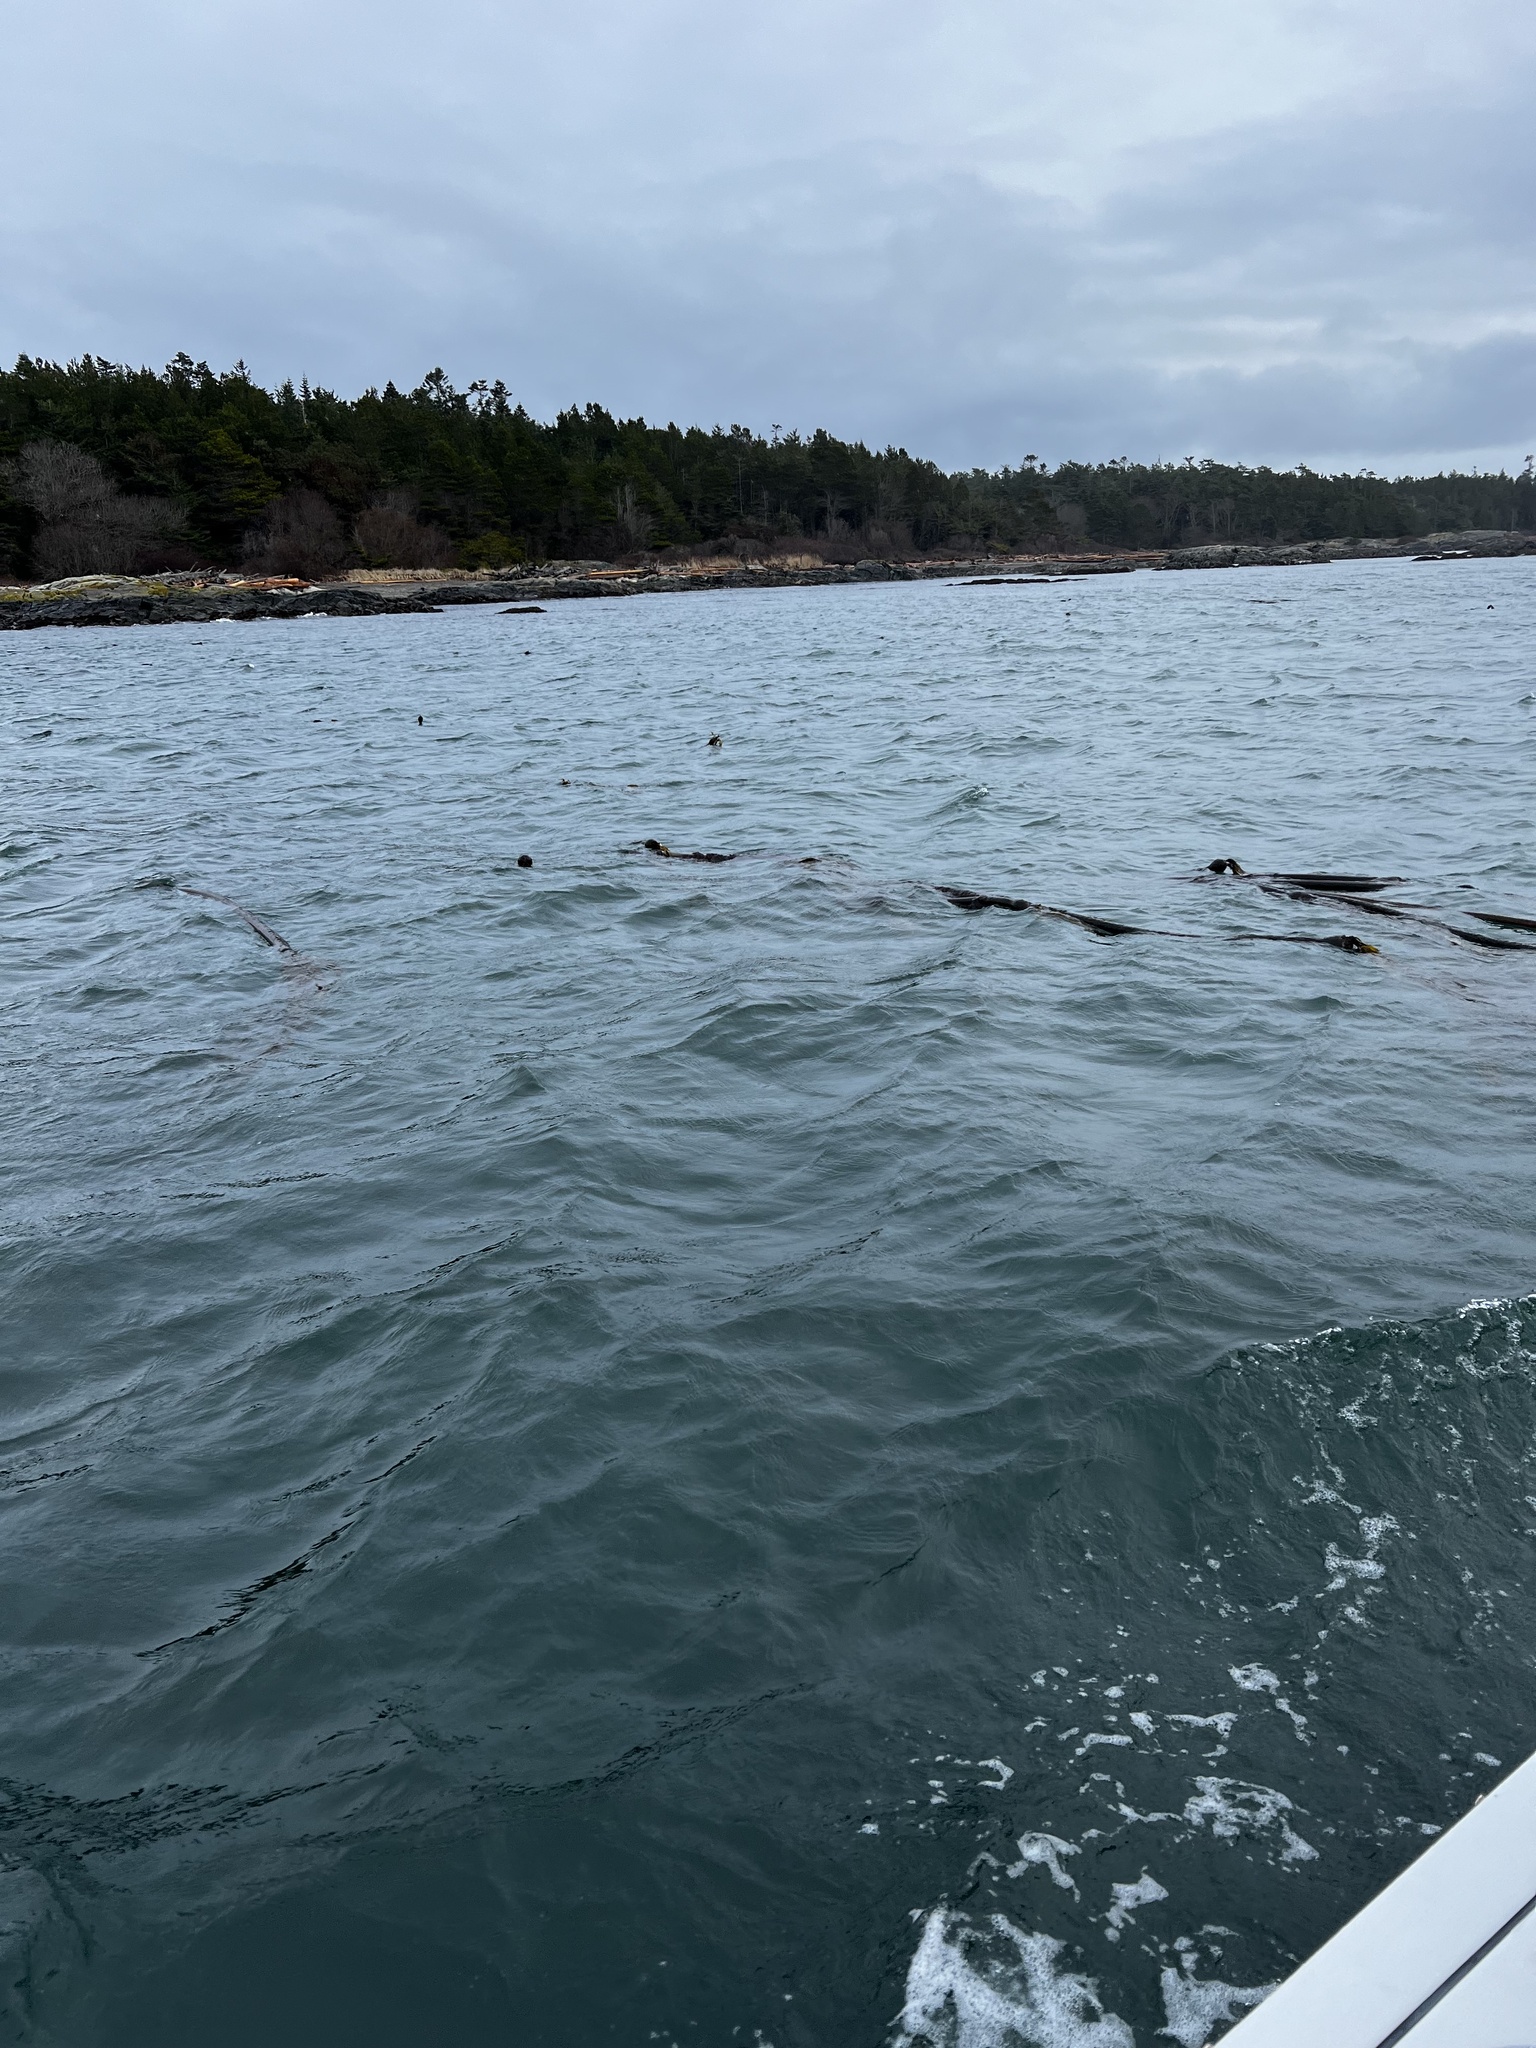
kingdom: Chromista
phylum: Ochrophyta
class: Phaeophyceae
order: Laminariales
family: Laminariaceae
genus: Nereocystis
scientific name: Nereocystis luetkeana
